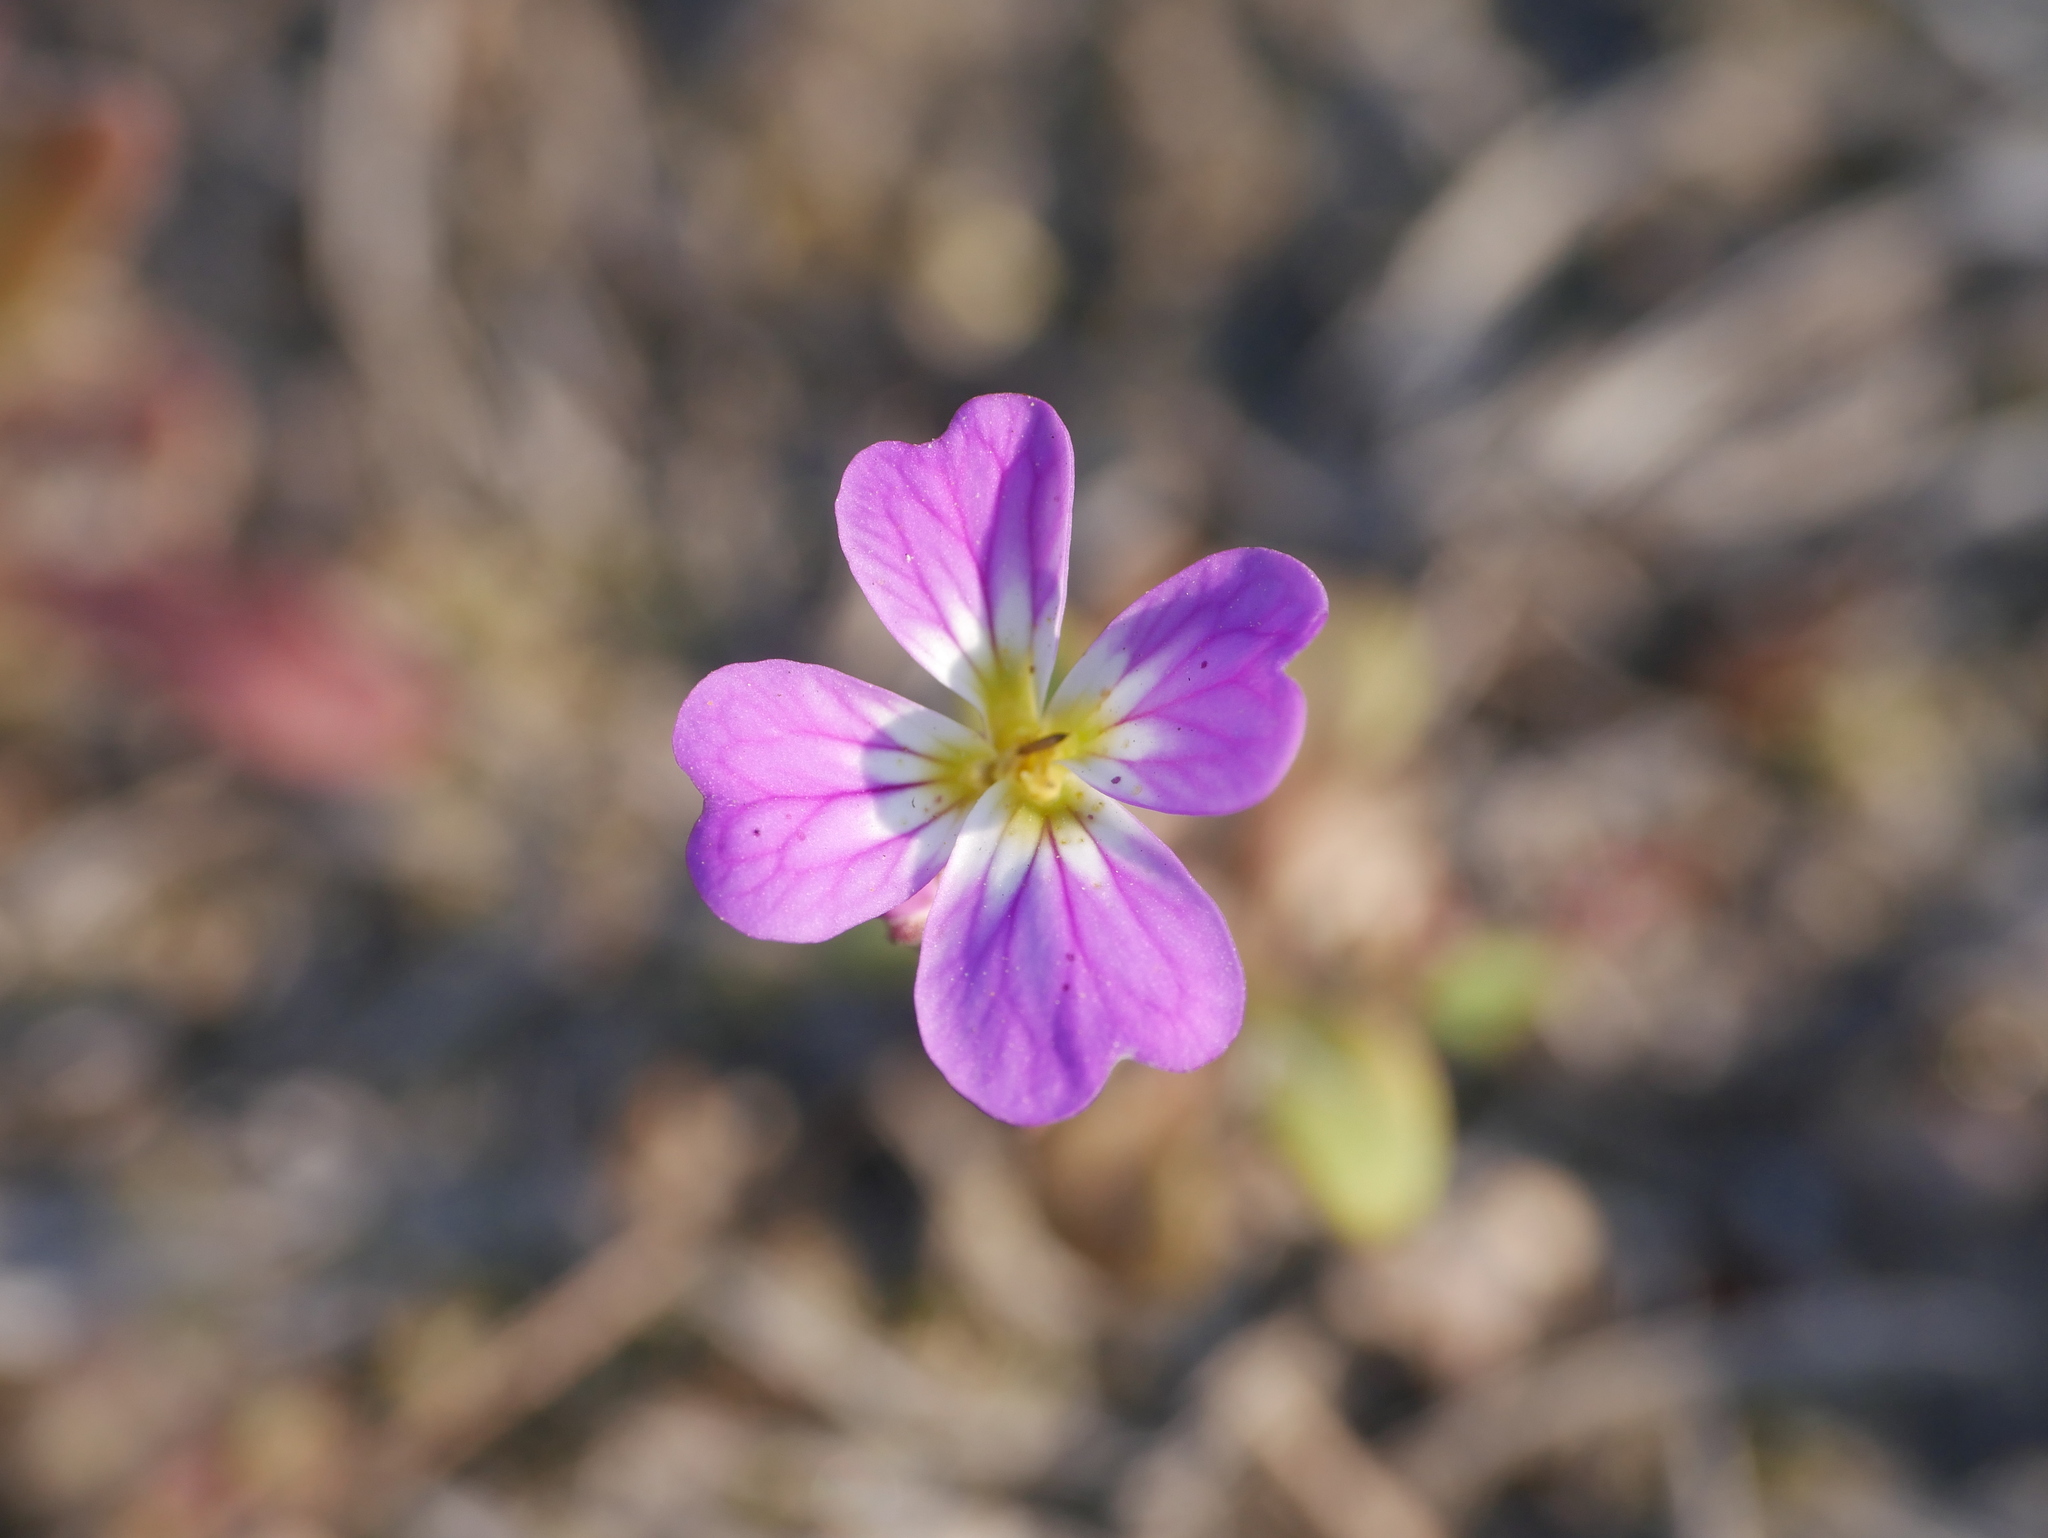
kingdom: Plantae
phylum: Tracheophyta
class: Magnoliopsida
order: Brassicales
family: Brassicaceae
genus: Malcolmia
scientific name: Malcolmia maritima
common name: Virginia stock
